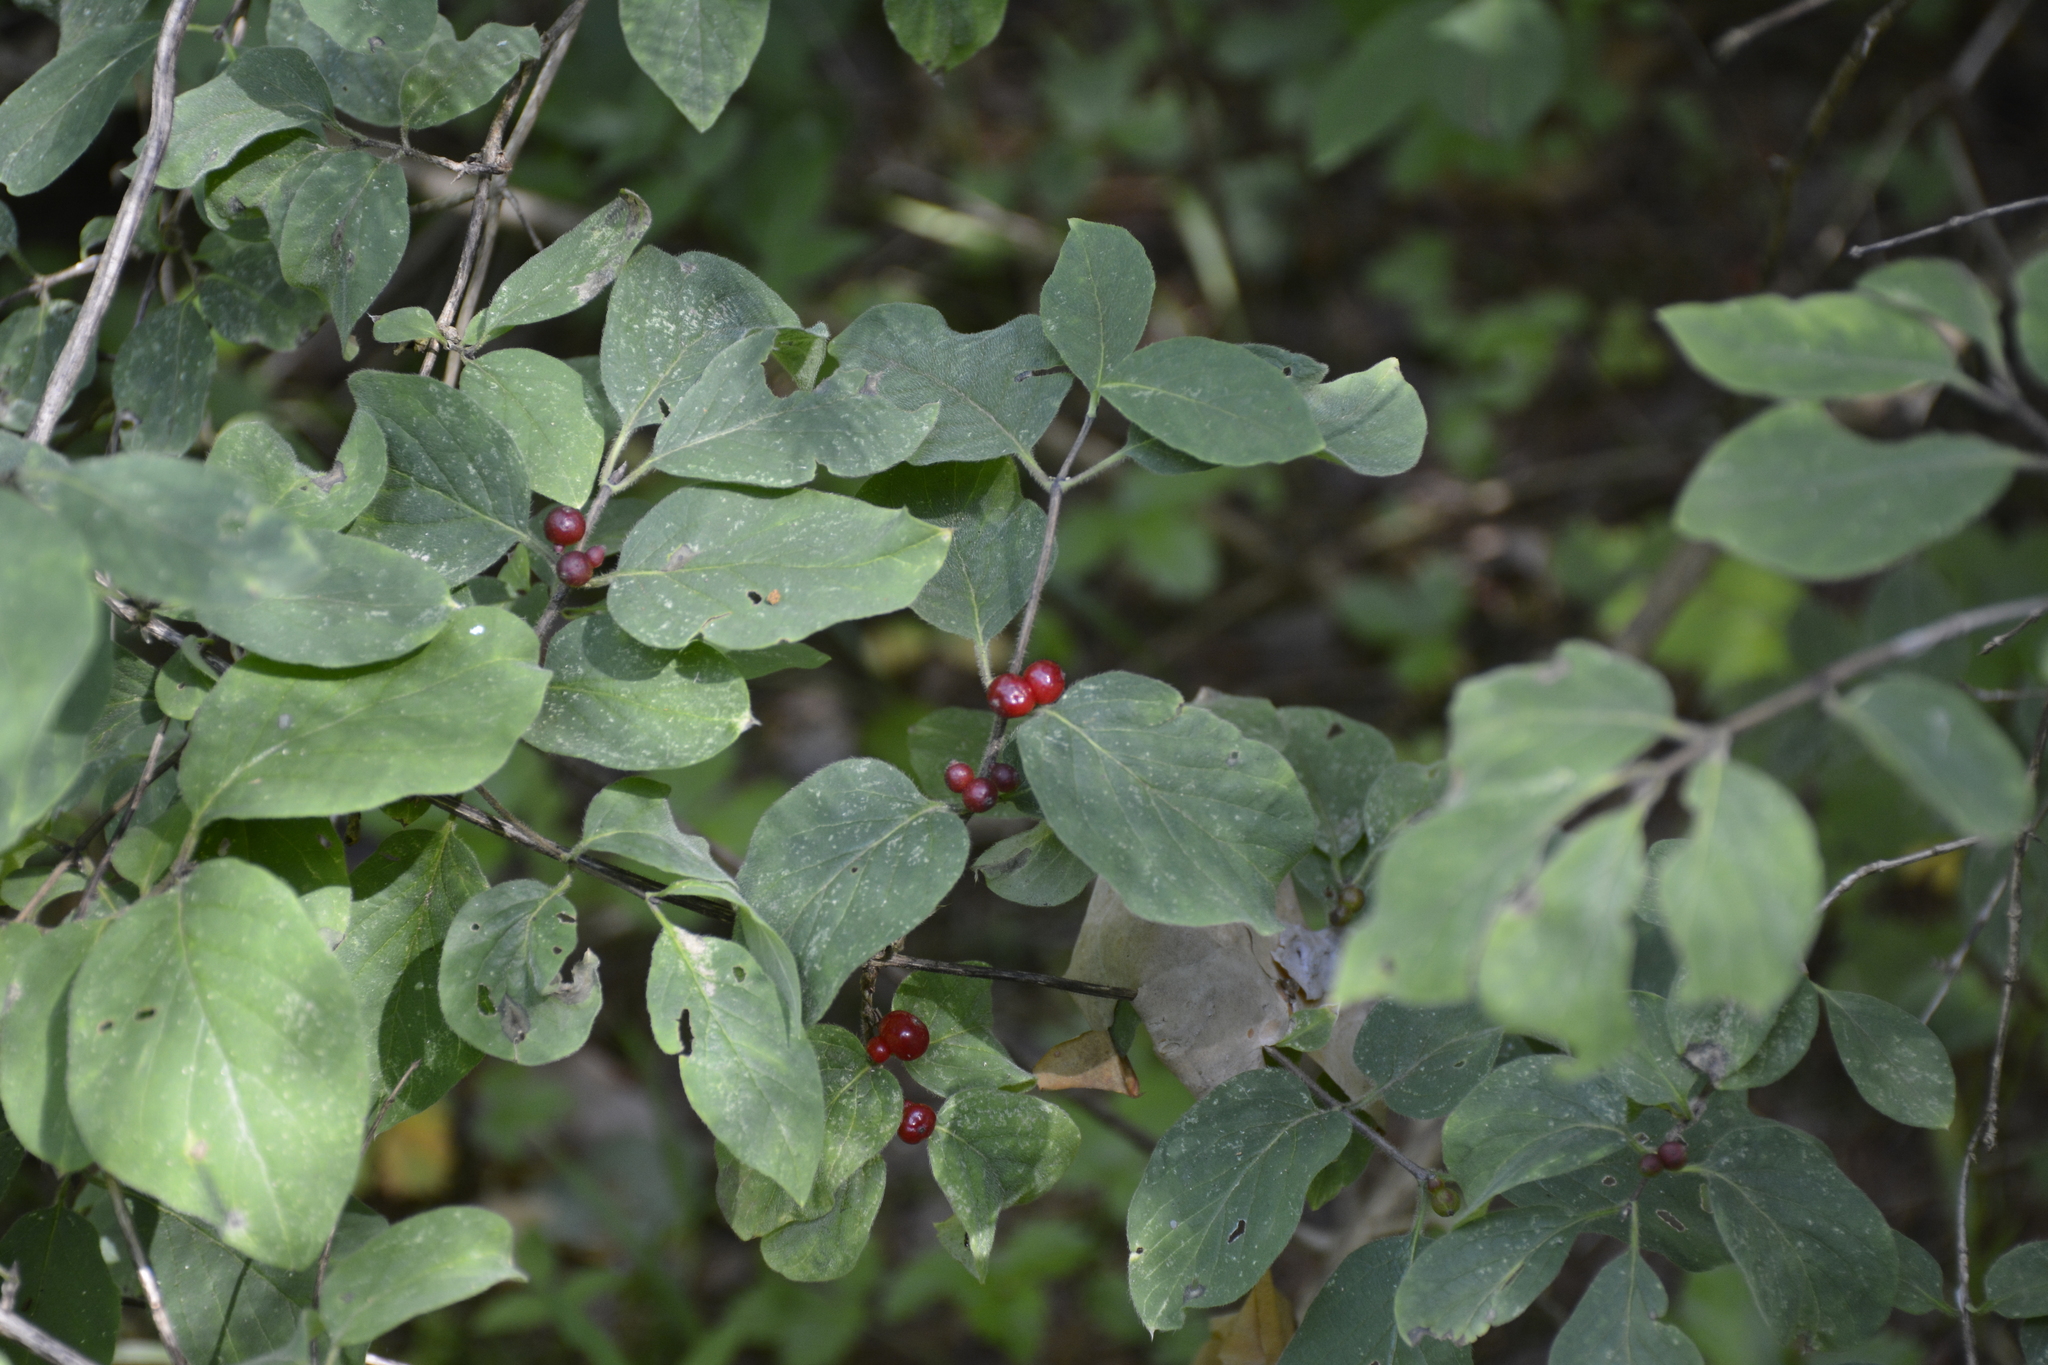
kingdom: Plantae
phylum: Tracheophyta
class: Magnoliopsida
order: Dipsacales
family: Caprifoliaceae
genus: Lonicera
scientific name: Lonicera xylosteum
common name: Fly honeysuckle
